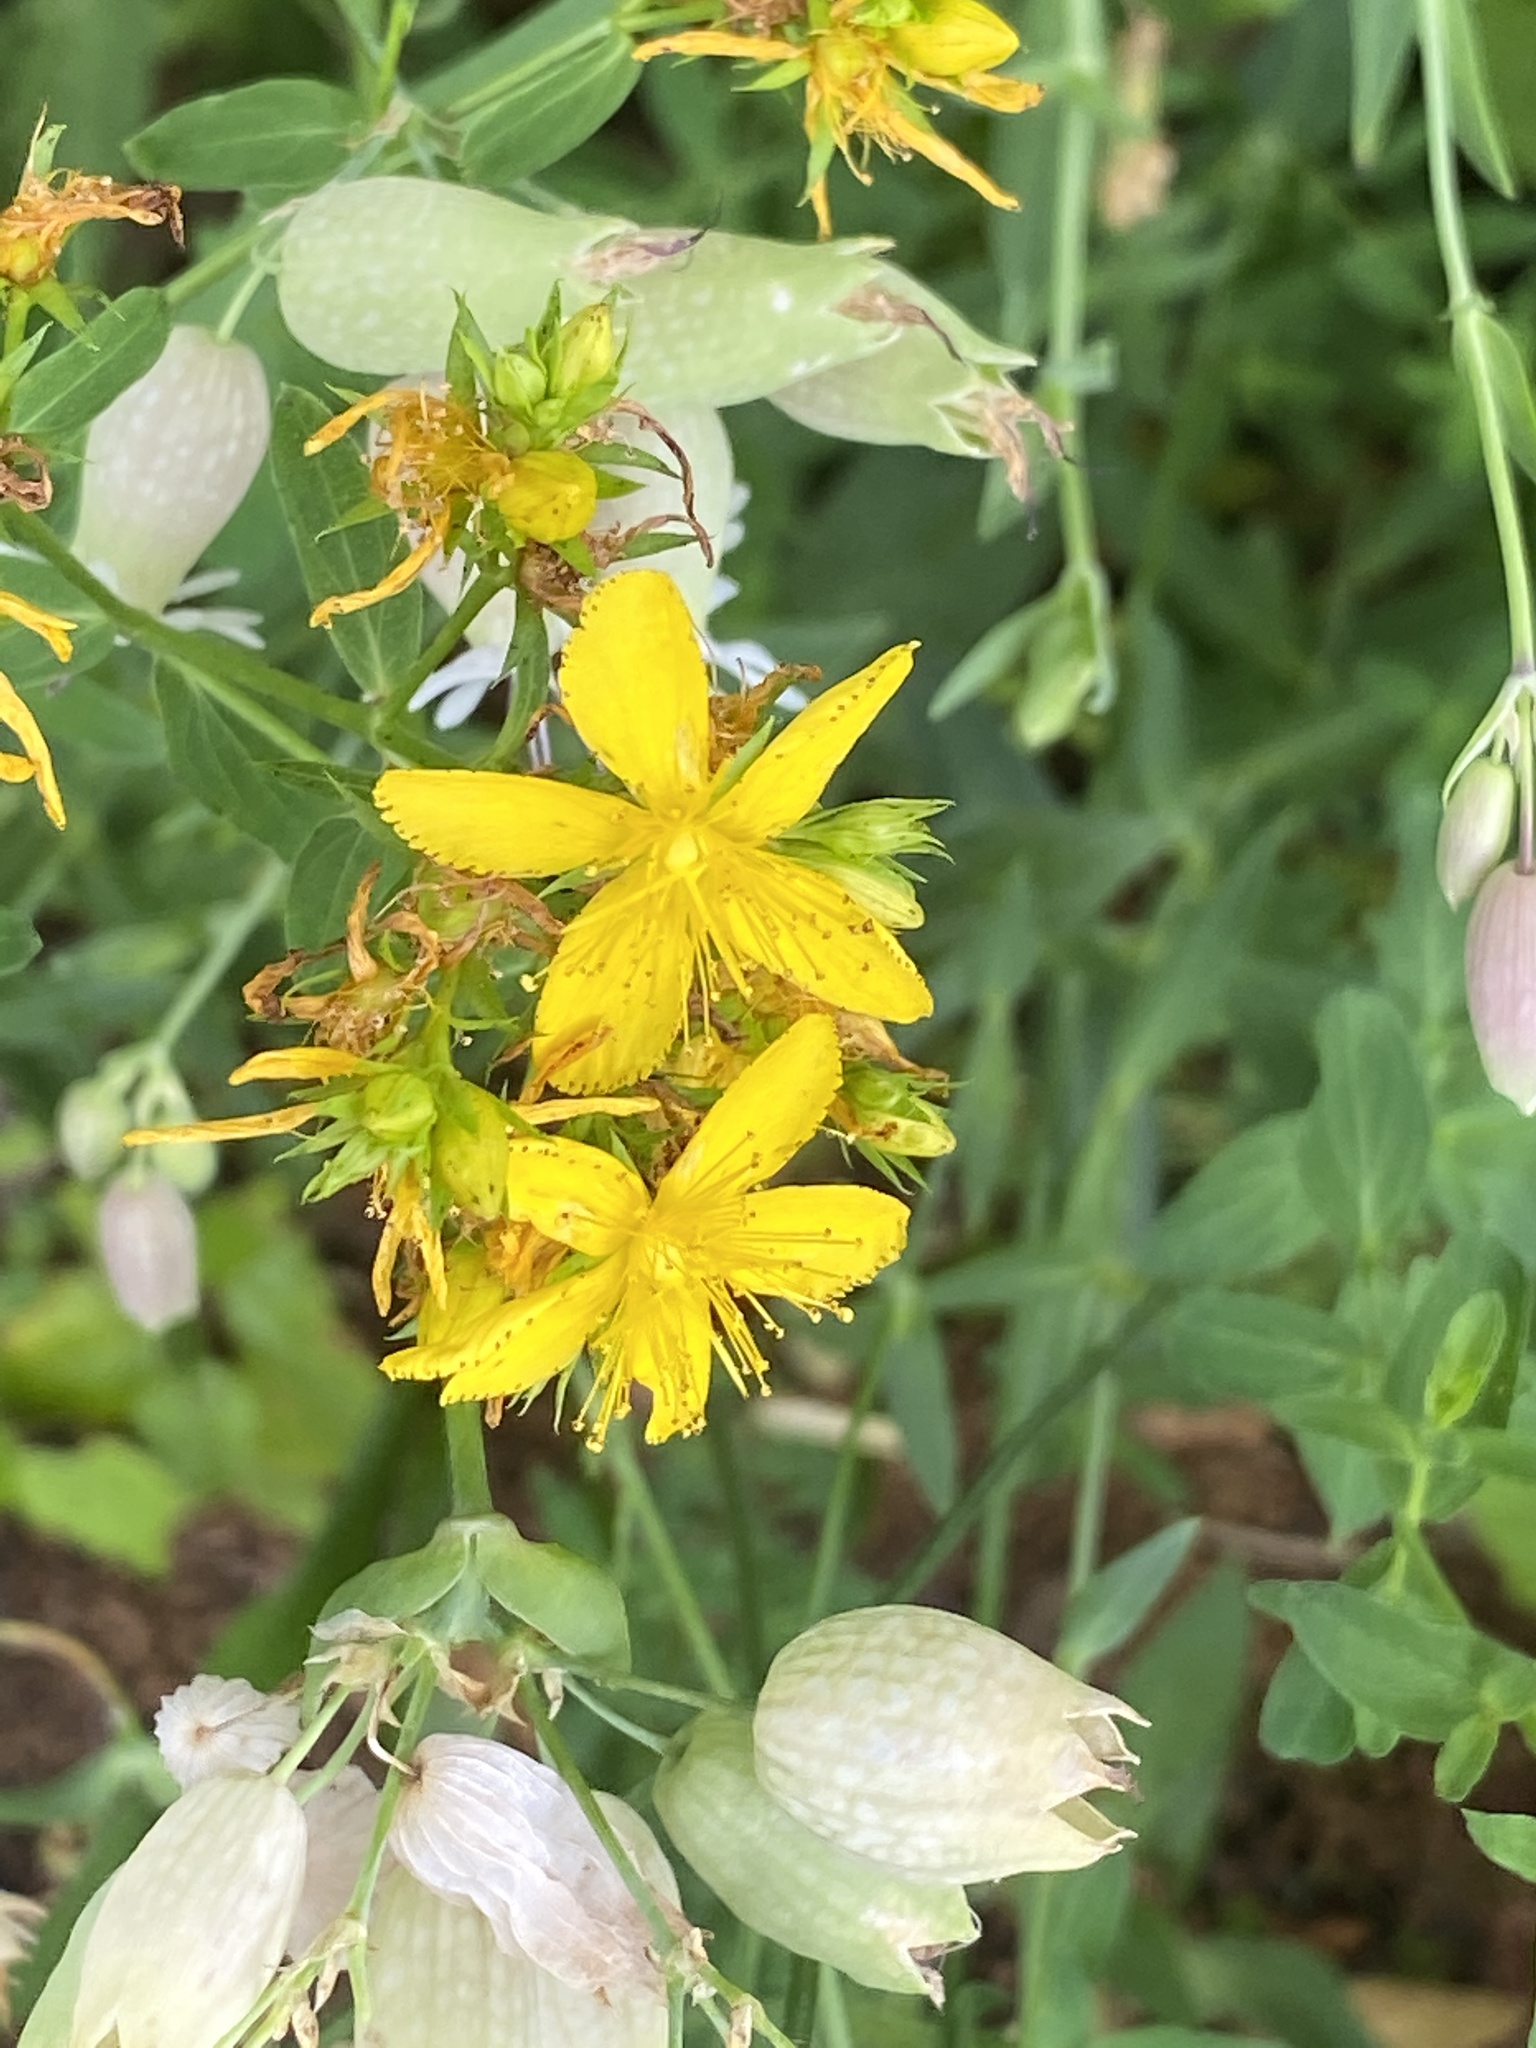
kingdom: Plantae
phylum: Tracheophyta
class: Magnoliopsida
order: Malpighiales
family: Hypericaceae
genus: Hypericum
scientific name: Hypericum perforatum
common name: Common st. johnswort
